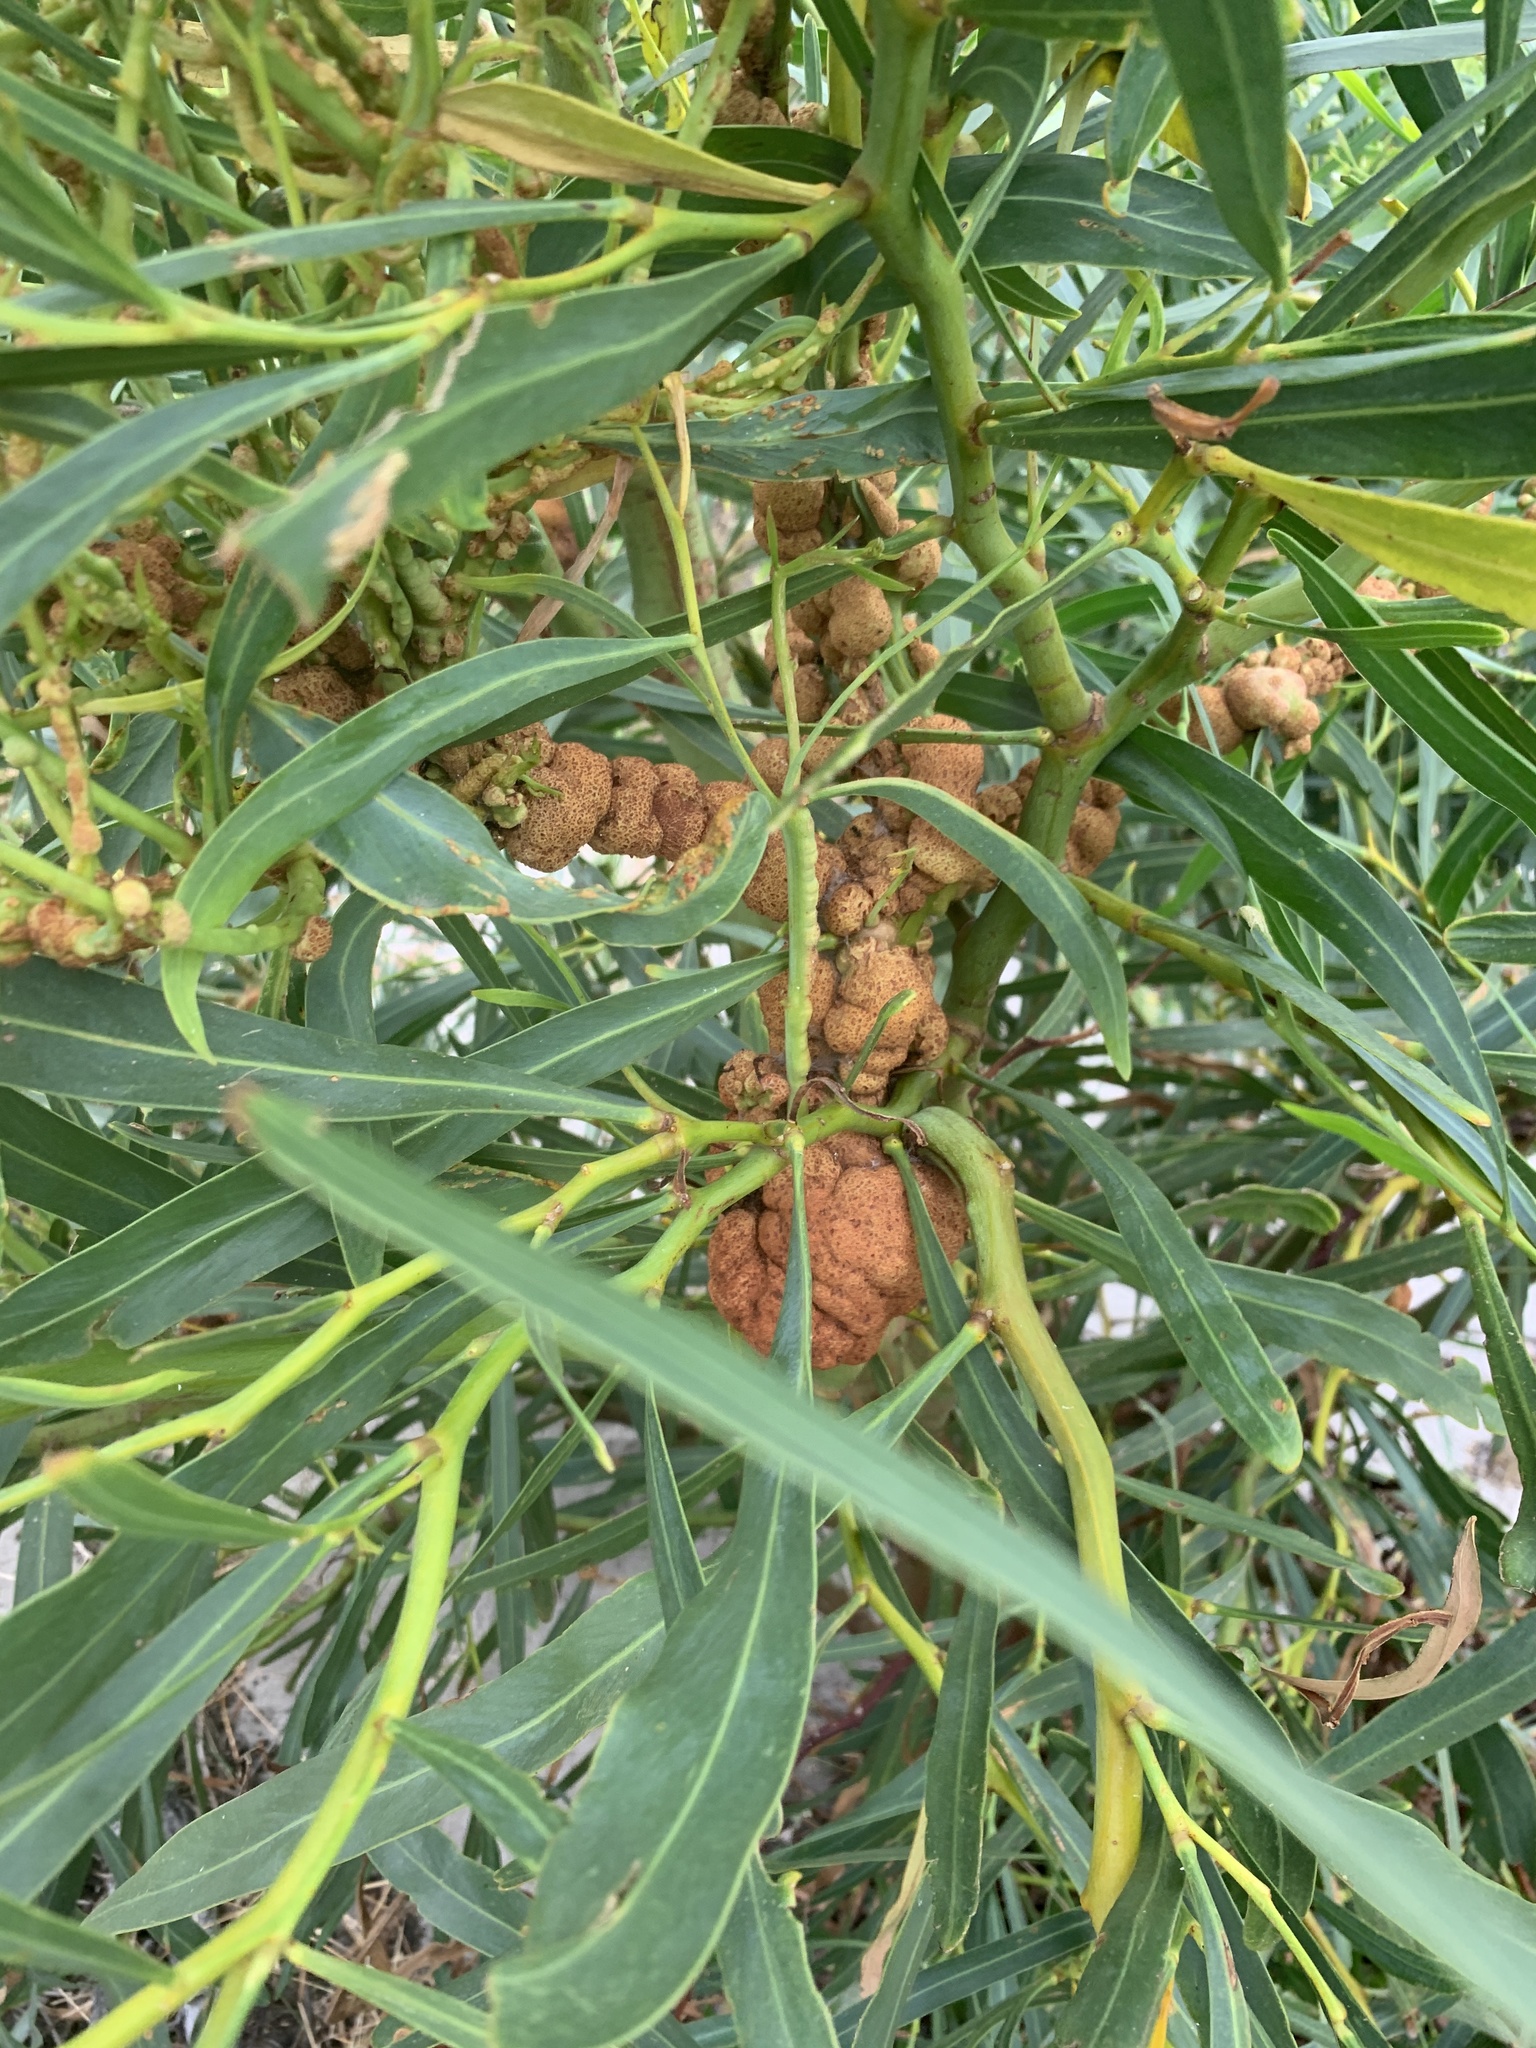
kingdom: Plantae
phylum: Tracheophyta
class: Magnoliopsida
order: Fabales
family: Fabaceae
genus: Acacia
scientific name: Acacia saligna
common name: Orange wattle
